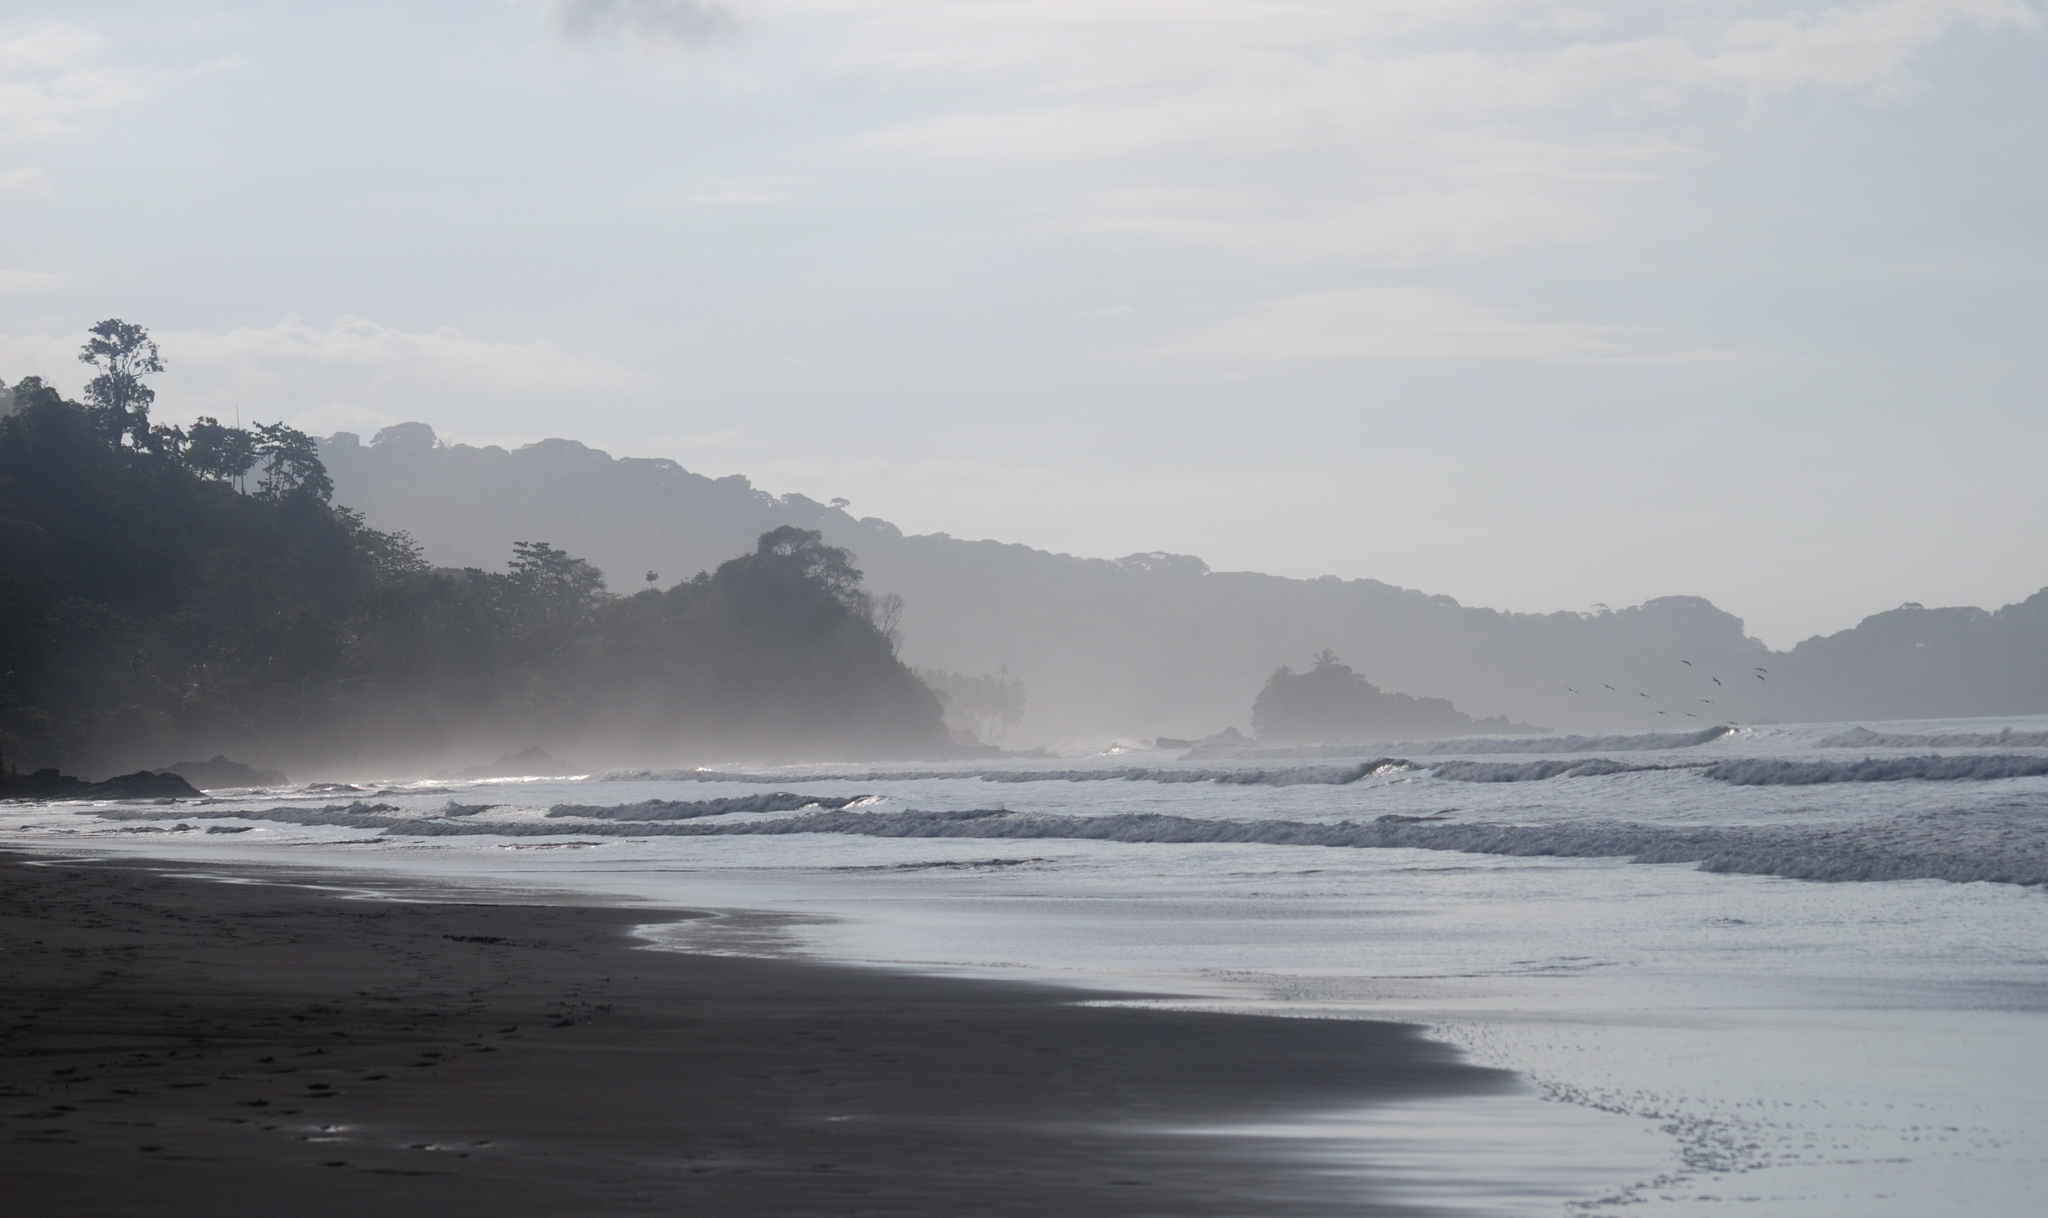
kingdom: Animalia
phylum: Chordata
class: Aves
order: Pelecaniformes
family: Pelecanidae
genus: Pelecanus
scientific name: Pelecanus occidentalis
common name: Brown pelican
